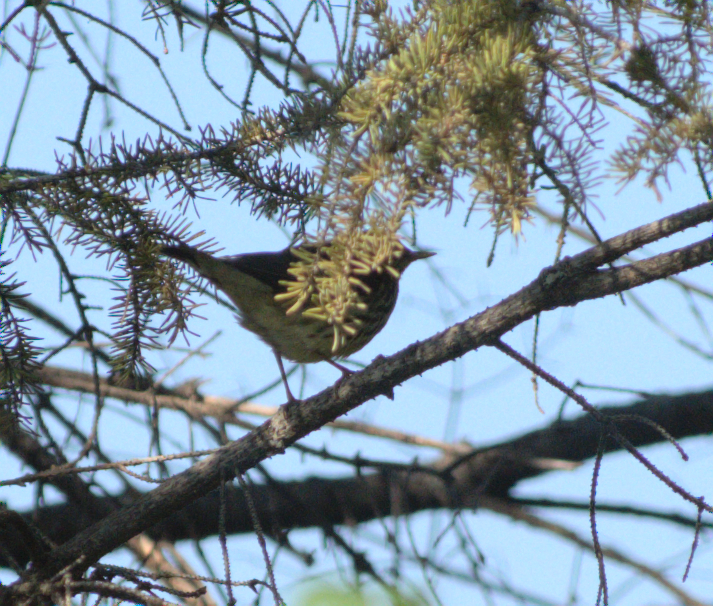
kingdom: Animalia
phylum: Chordata
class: Aves
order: Passeriformes
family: Parulidae
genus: Parkesia
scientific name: Parkesia noveboracensis
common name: Northern waterthrush
